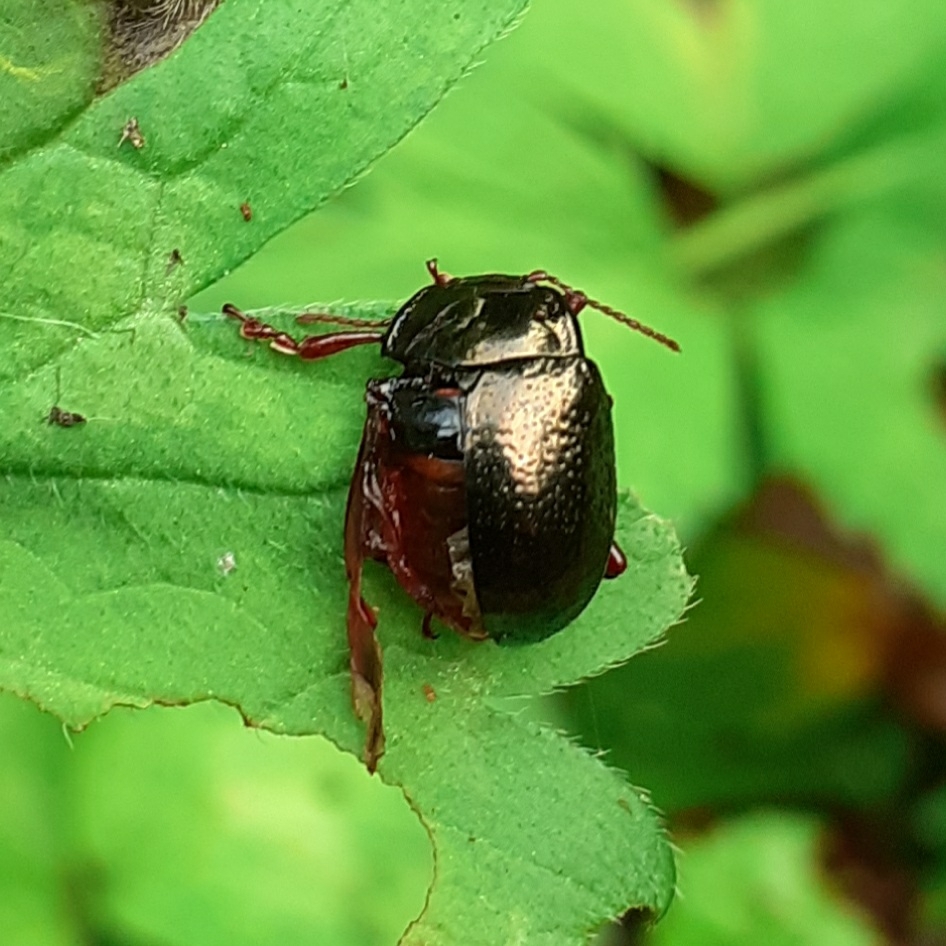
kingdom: Animalia
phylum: Arthropoda
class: Insecta
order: Coleoptera
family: Chrysomelidae
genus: Chrysolina
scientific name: Chrysolina bankii
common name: Leaf beetle
